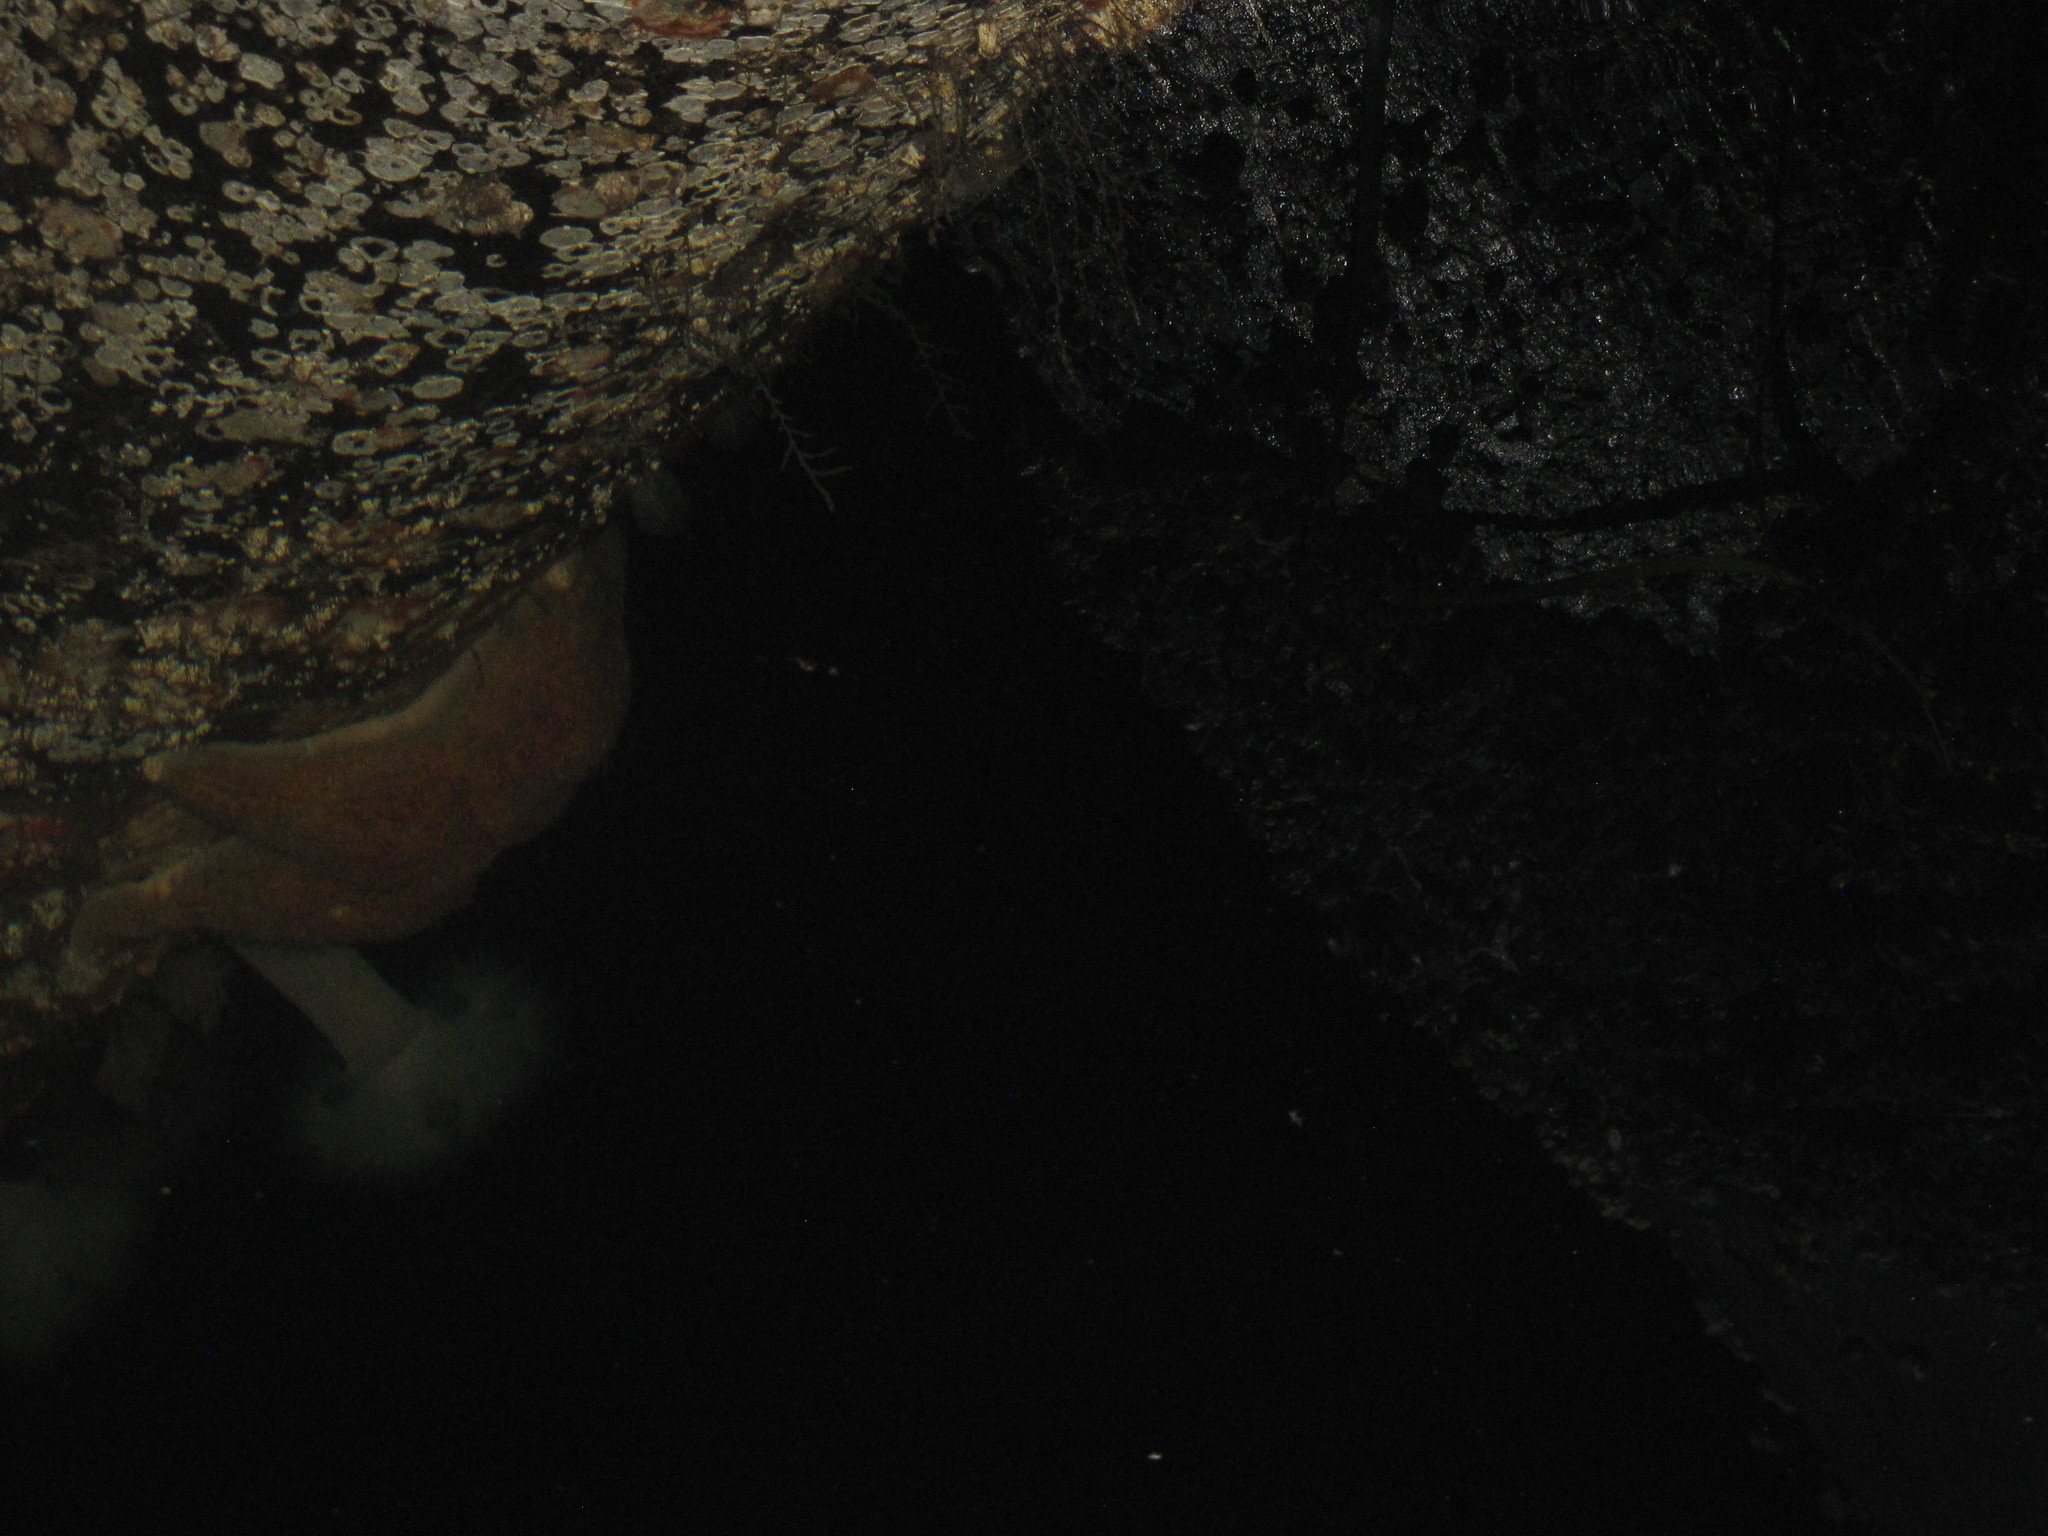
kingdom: Animalia
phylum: Echinodermata
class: Asteroidea
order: Valvatida
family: Asteropseidae
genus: Dermasterias
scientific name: Dermasterias imbricata
